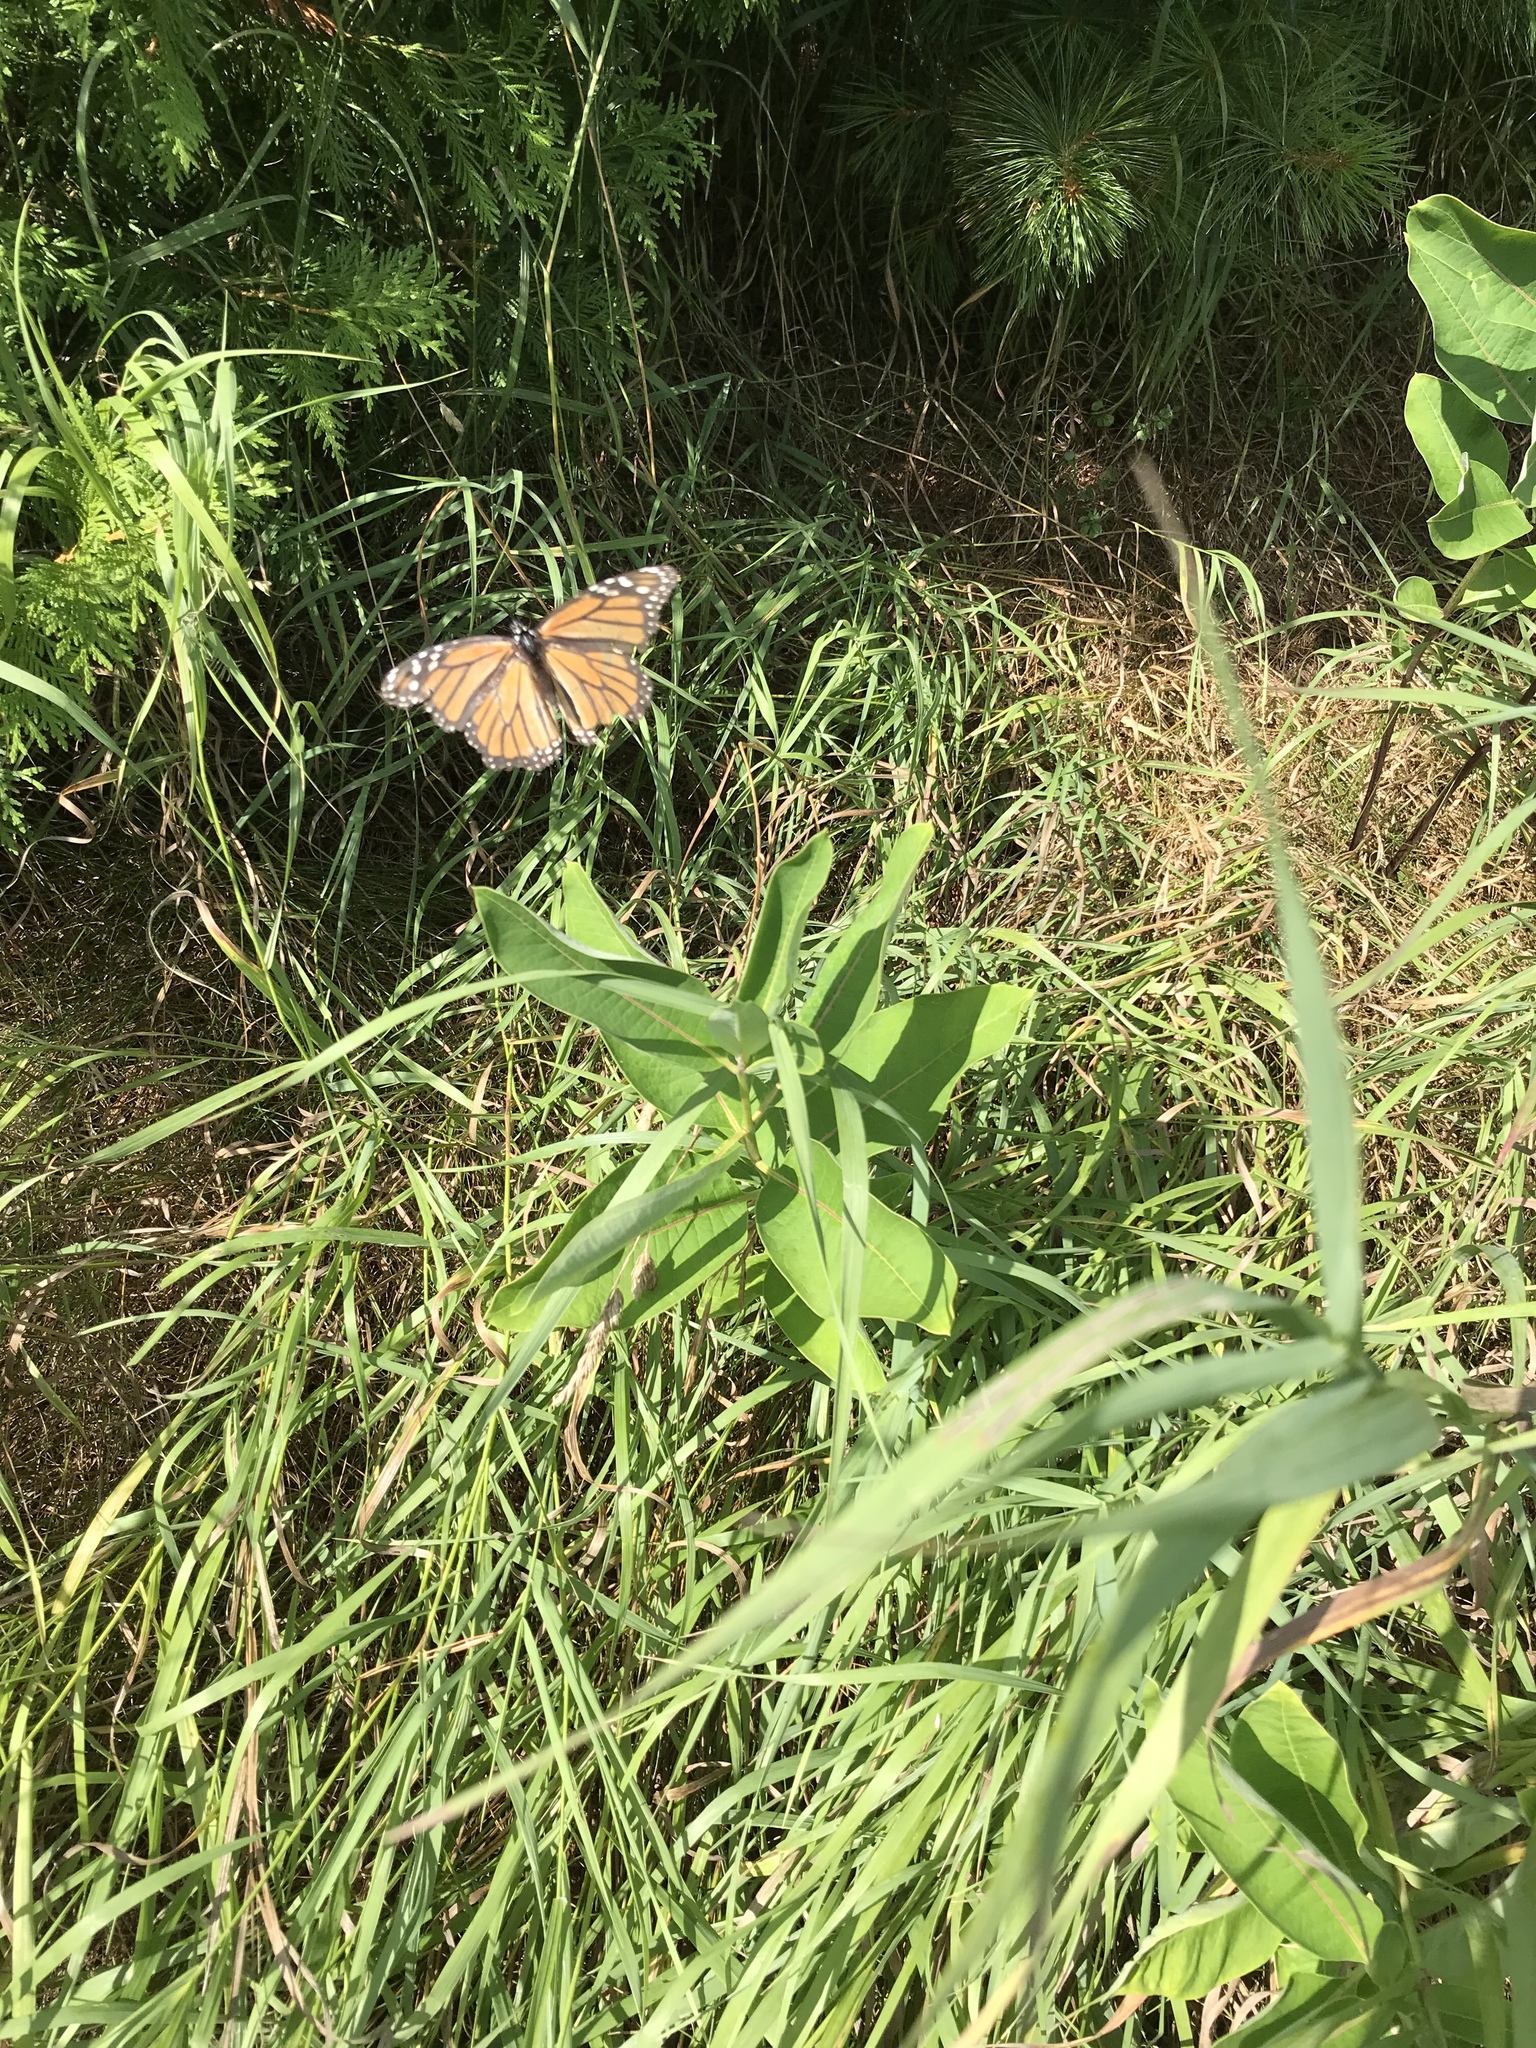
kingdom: Animalia
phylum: Arthropoda
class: Insecta
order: Lepidoptera
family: Nymphalidae
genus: Danaus
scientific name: Danaus plexippus
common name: Monarch
